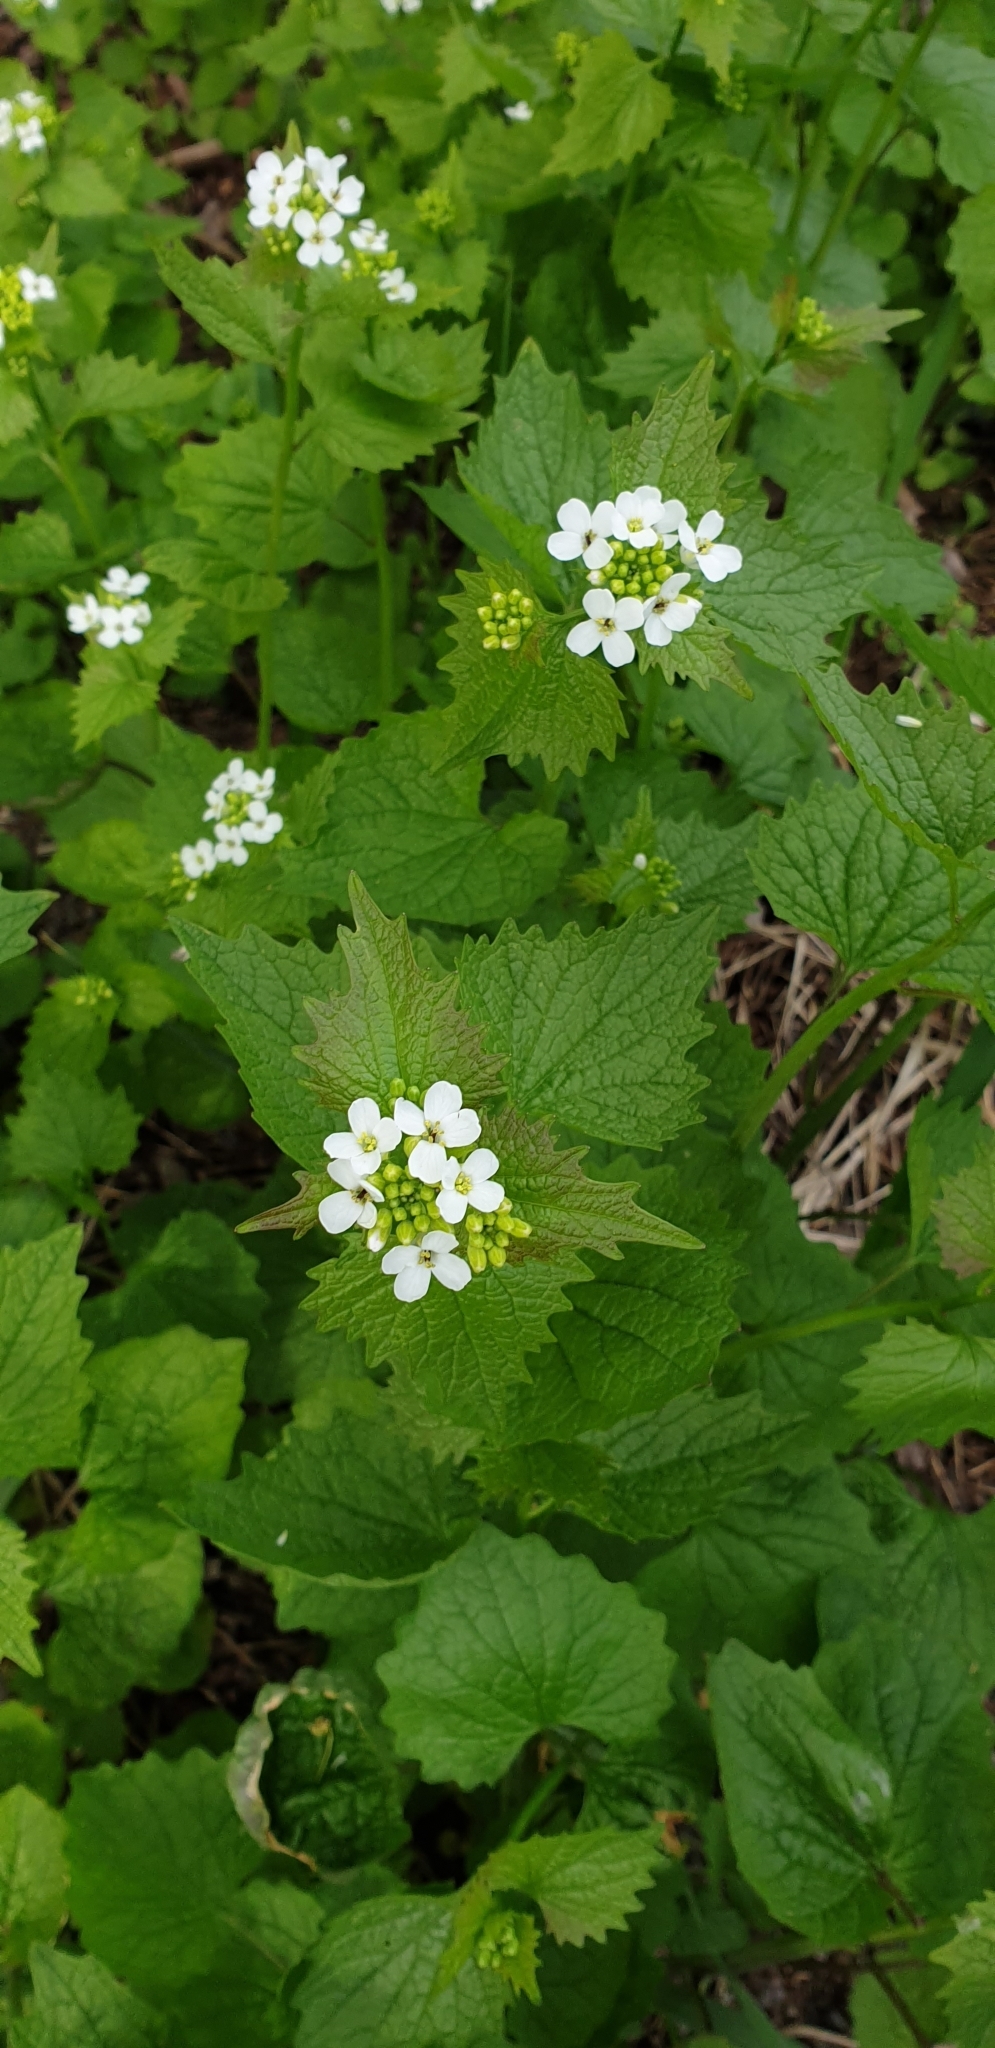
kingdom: Plantae
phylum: Tracheophyta
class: Magnoliopsida
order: Brassicales
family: Brassicaceae
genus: Alliaria
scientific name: Alliaria petiolata
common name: Garlic mustard
